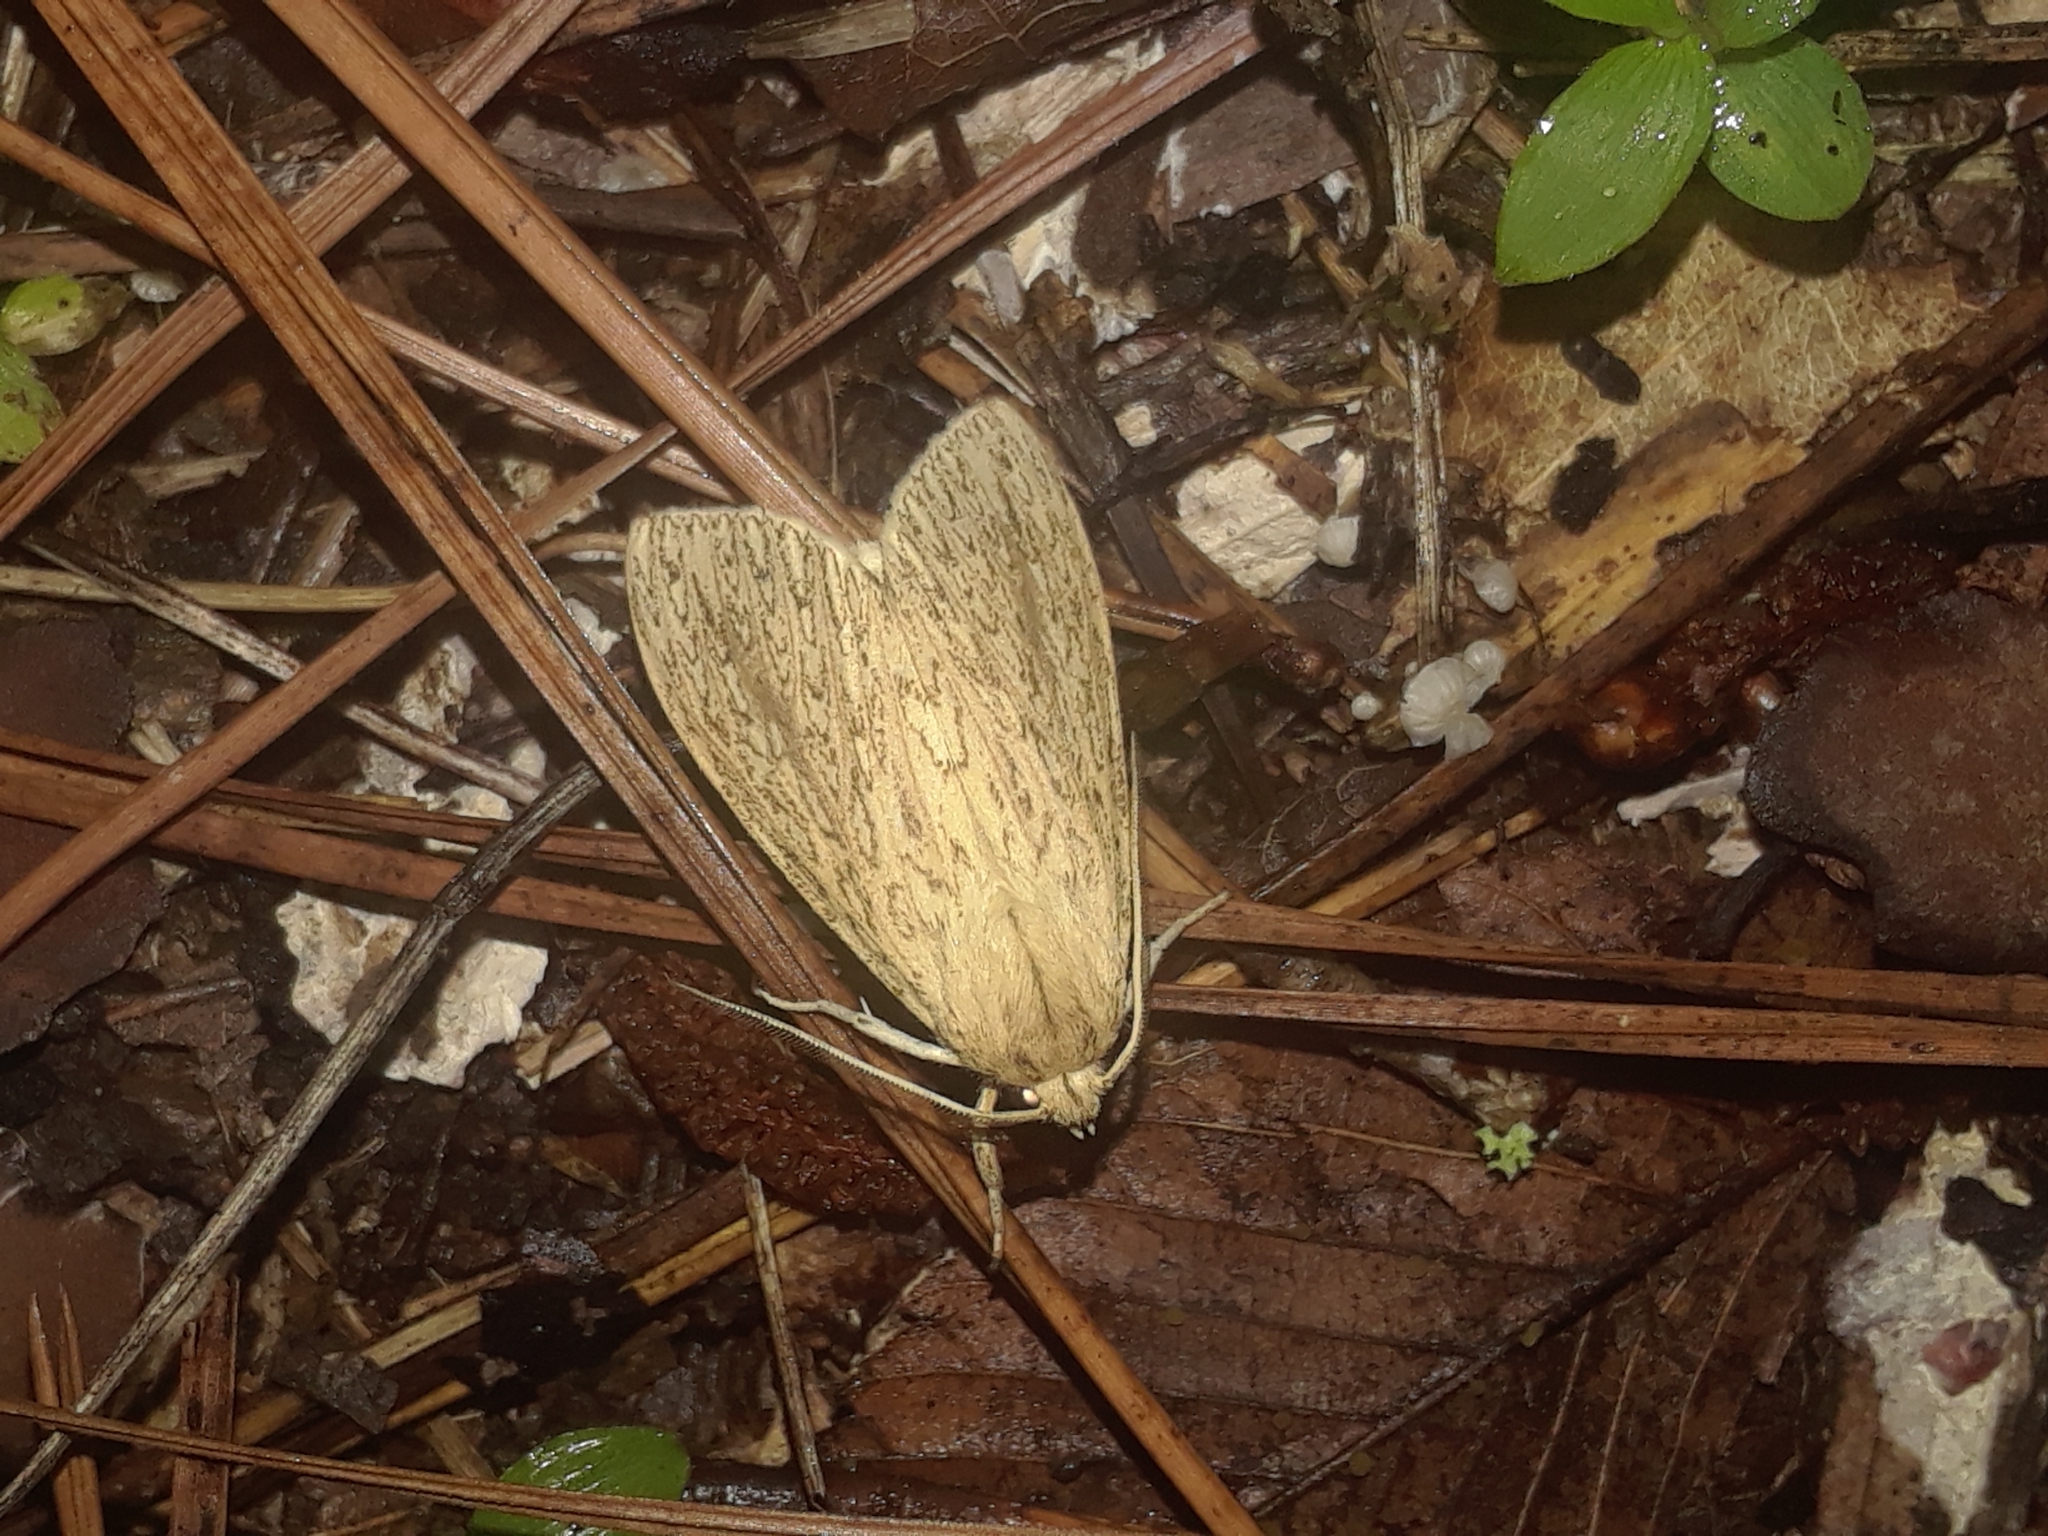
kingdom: Animalia
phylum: Arthropoda
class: Insecta
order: Lepidoptera
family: Erebidae
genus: Leucanopsis
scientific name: Leucanopsis longa
